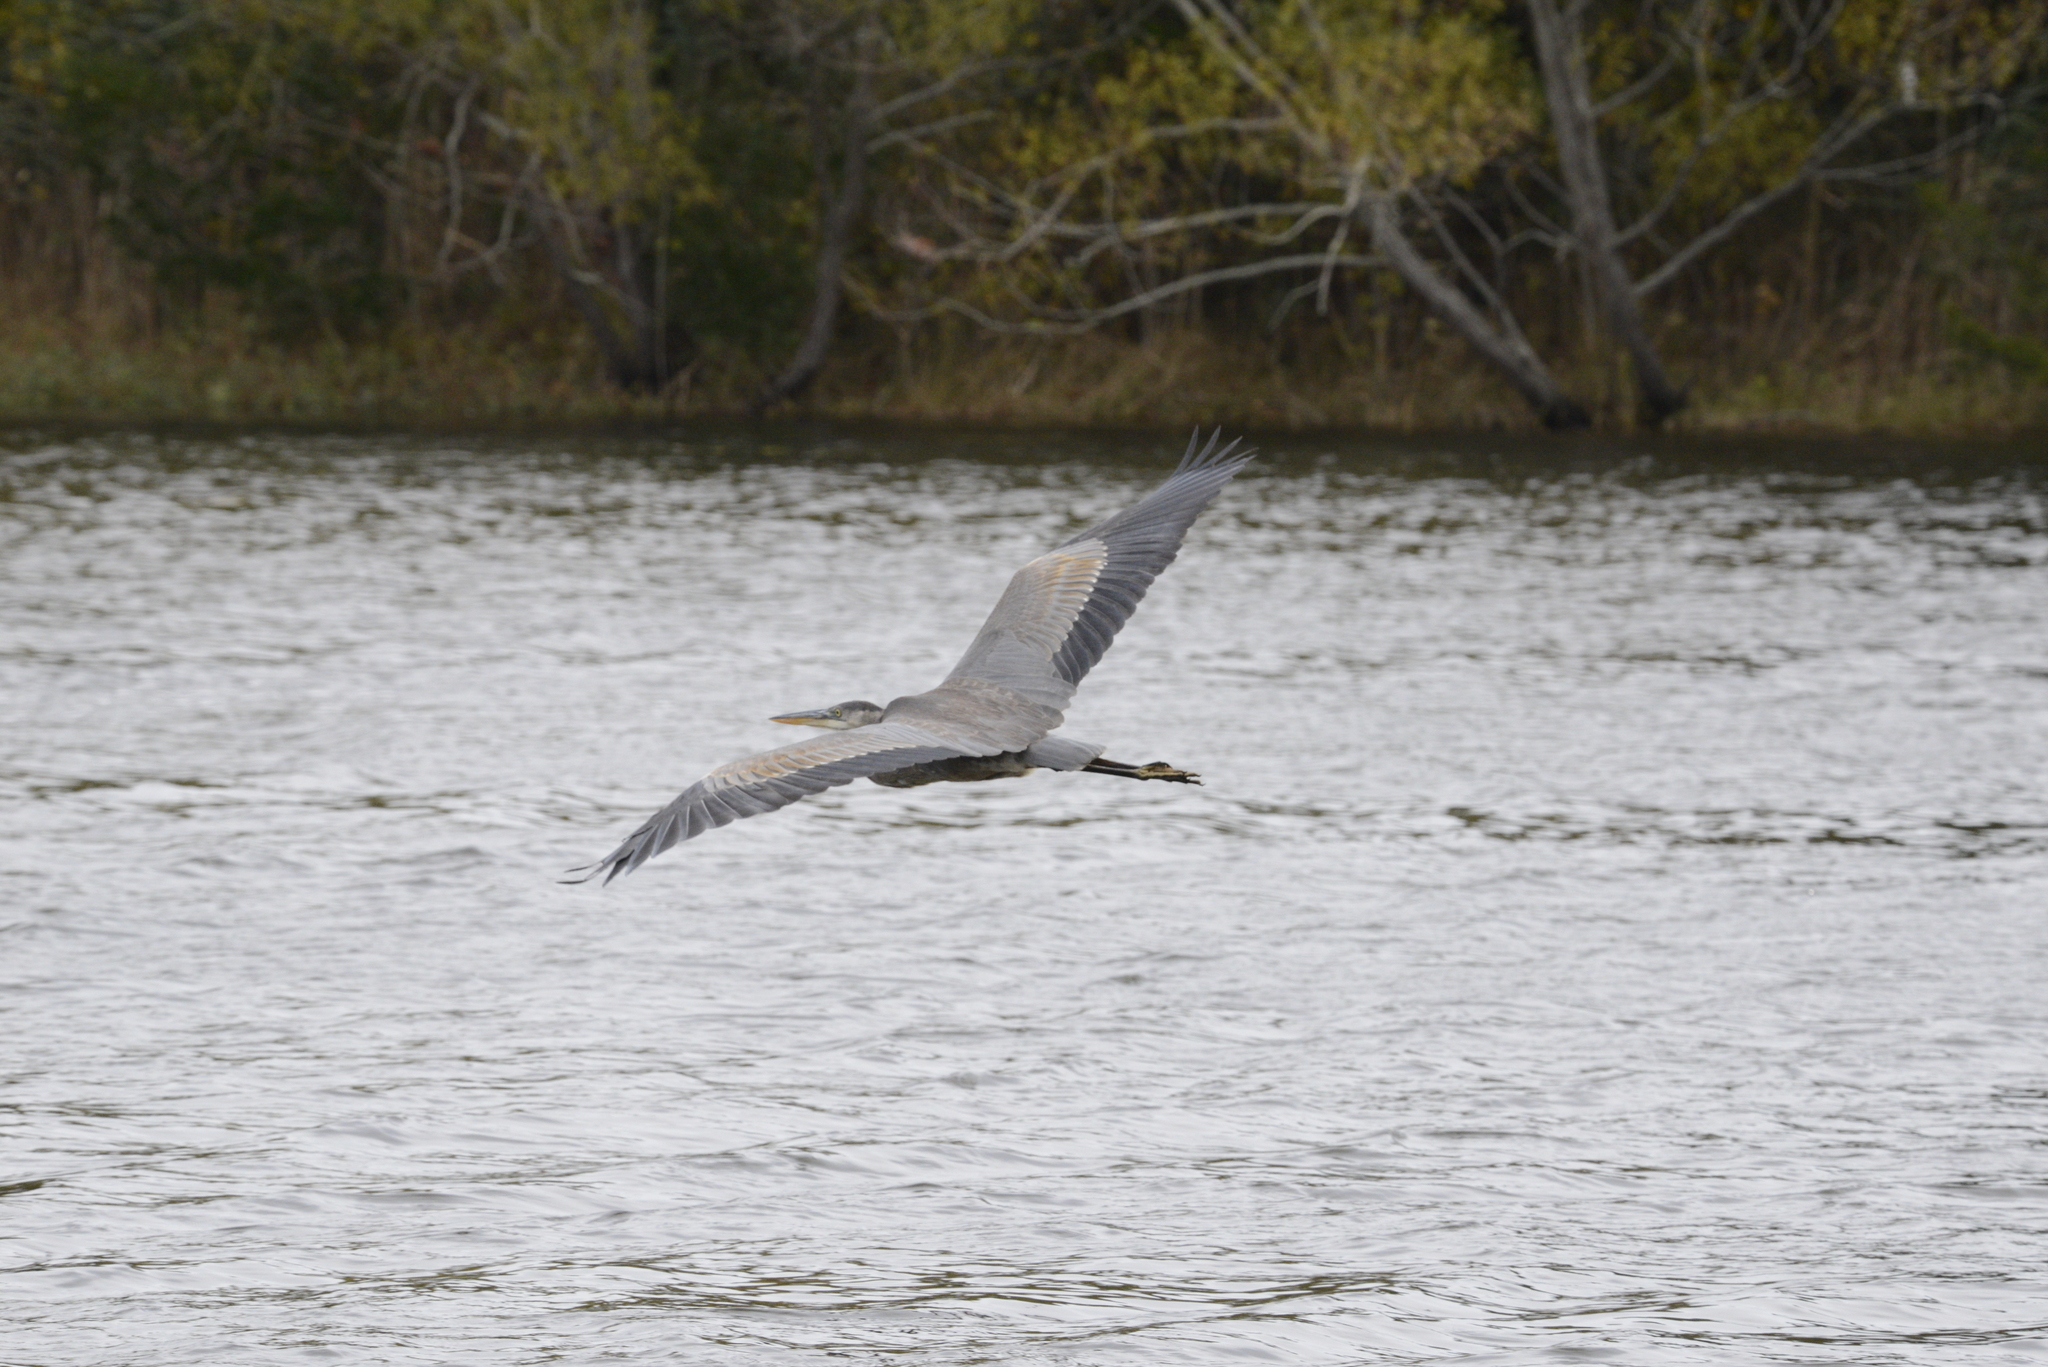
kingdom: Animalia
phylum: Chordata
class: Aves
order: Pelecaniformes
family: Ardeidae
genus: Ardea
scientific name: Ardea herodias
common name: Great blue heron
